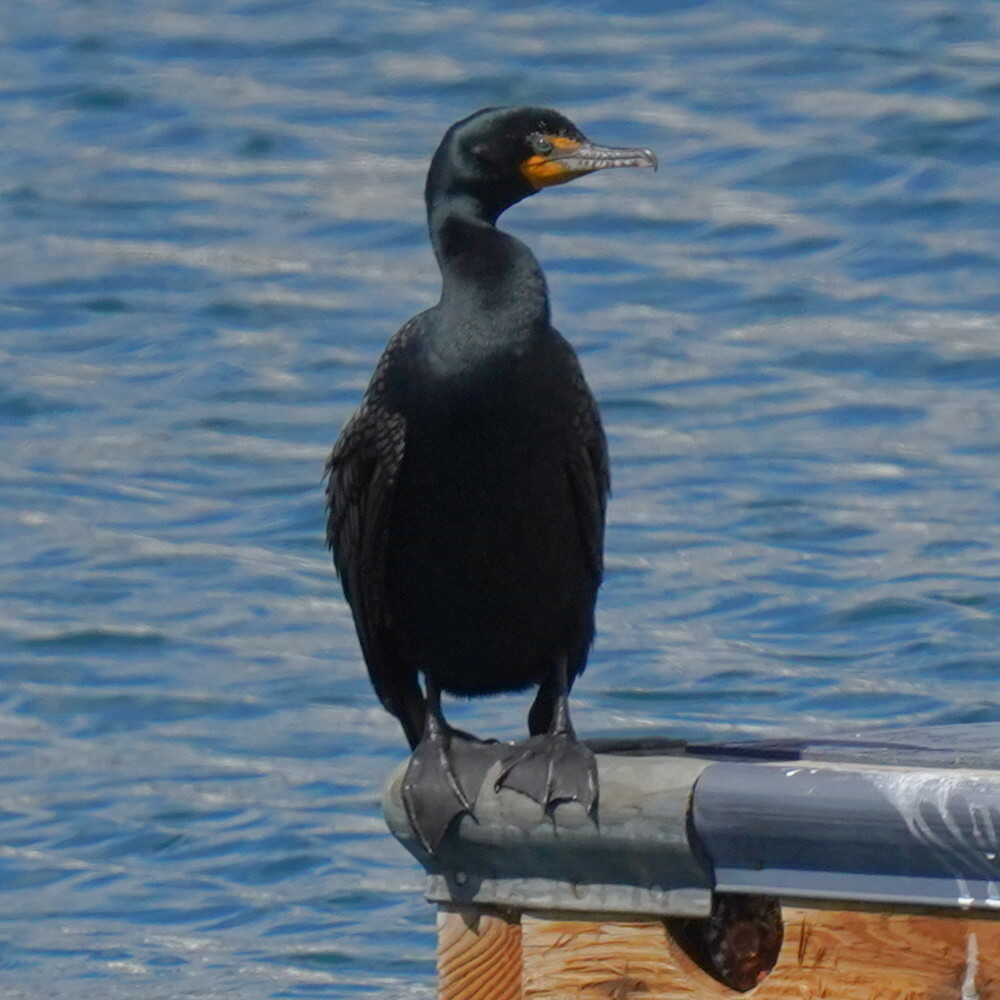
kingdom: Animalia
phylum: Chordata
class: Aves
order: Suliformes
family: Phalacrocoracidae
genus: Phalacrocorax
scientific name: Phalacrocorax auritus
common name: Double-crested cormorant
